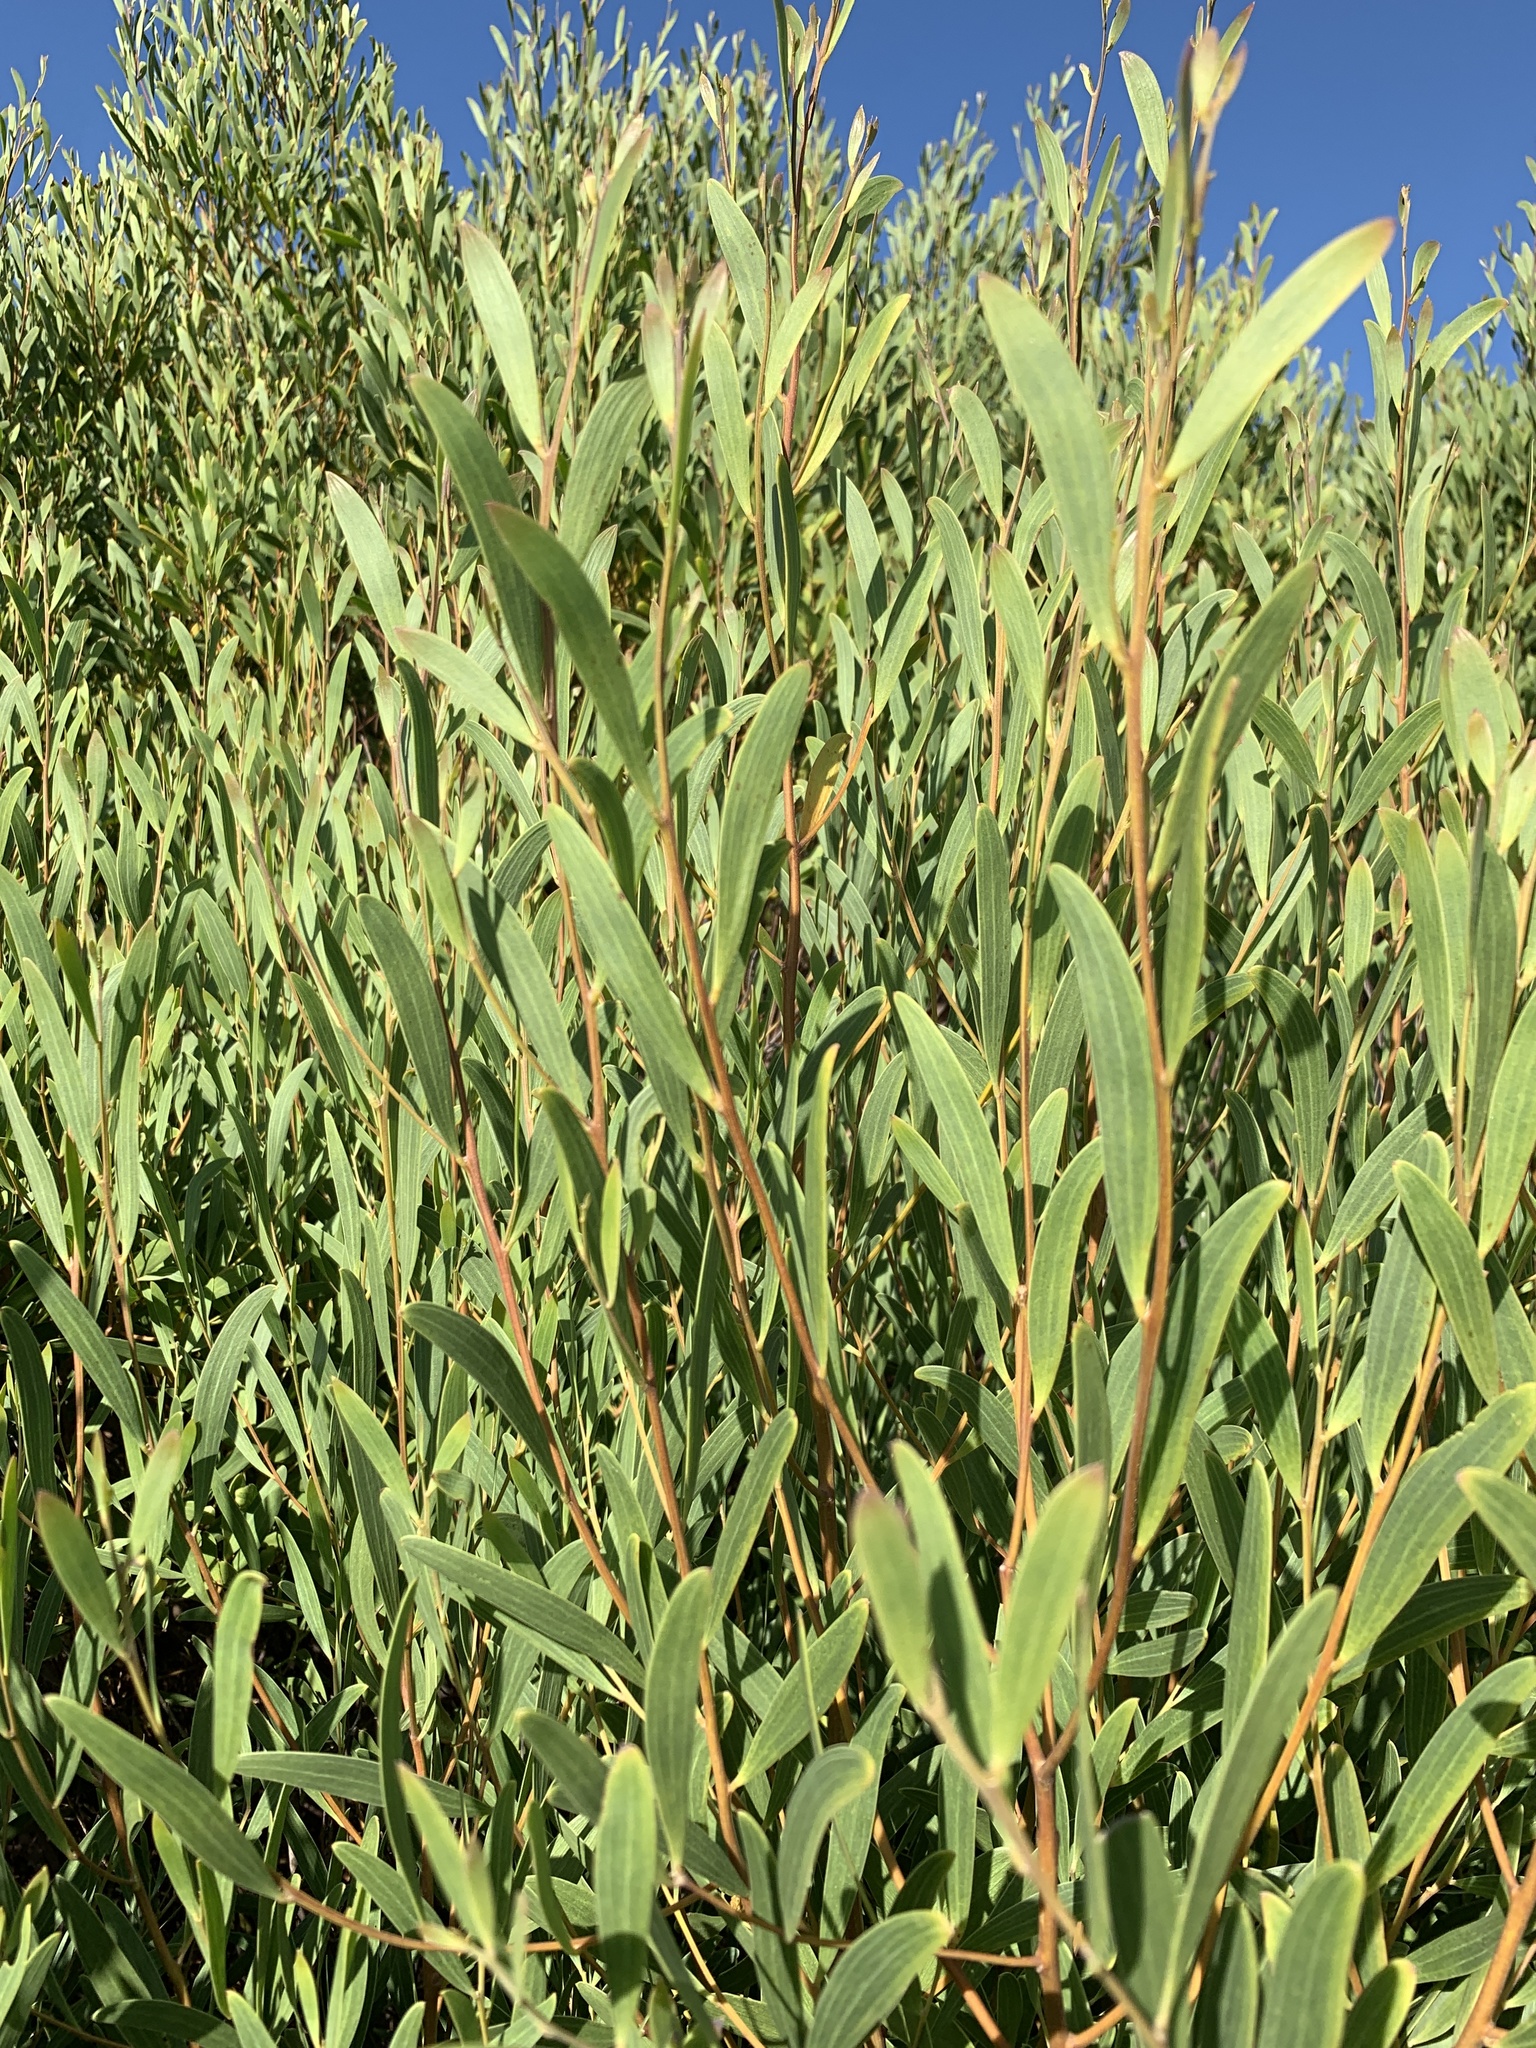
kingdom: Plantae
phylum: Tracheophyta
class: Magnoliopsida
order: Fabales
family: Fabaceae
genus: Acacia
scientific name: Acacia cyclops
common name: Coastal wattle
